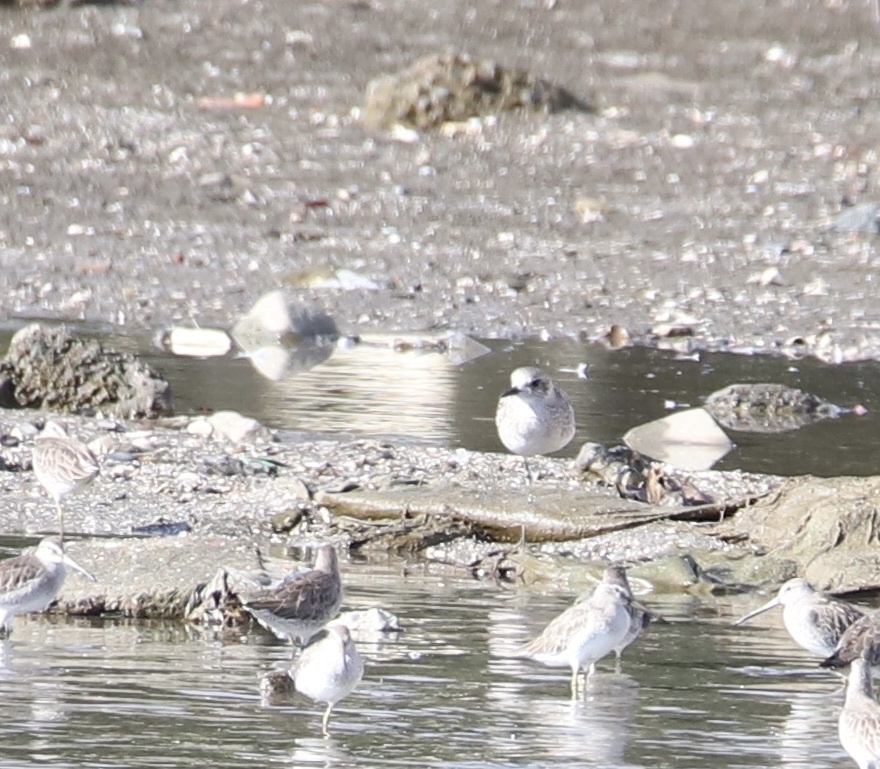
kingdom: Animalia
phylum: Chordata
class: Aves
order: Charadriiformes
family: Charadriidae
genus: Pluvialis
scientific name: Pluvialis squatarola
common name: Grey plover
